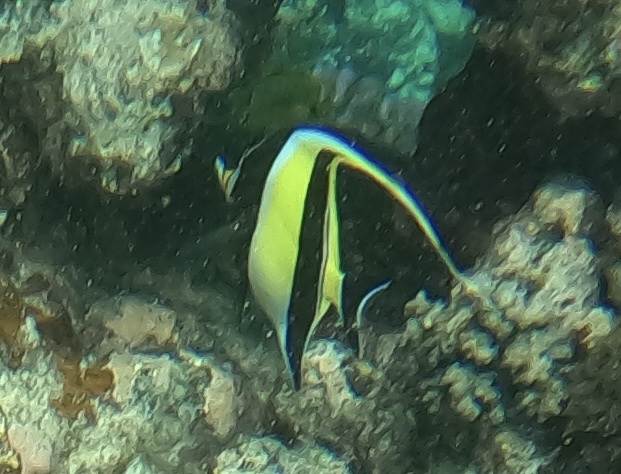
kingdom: Animalia
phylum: Chordata
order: Perciformes
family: Zanclidae
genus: Zanclus
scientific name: Zanclus cornutus
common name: Moorish idol
